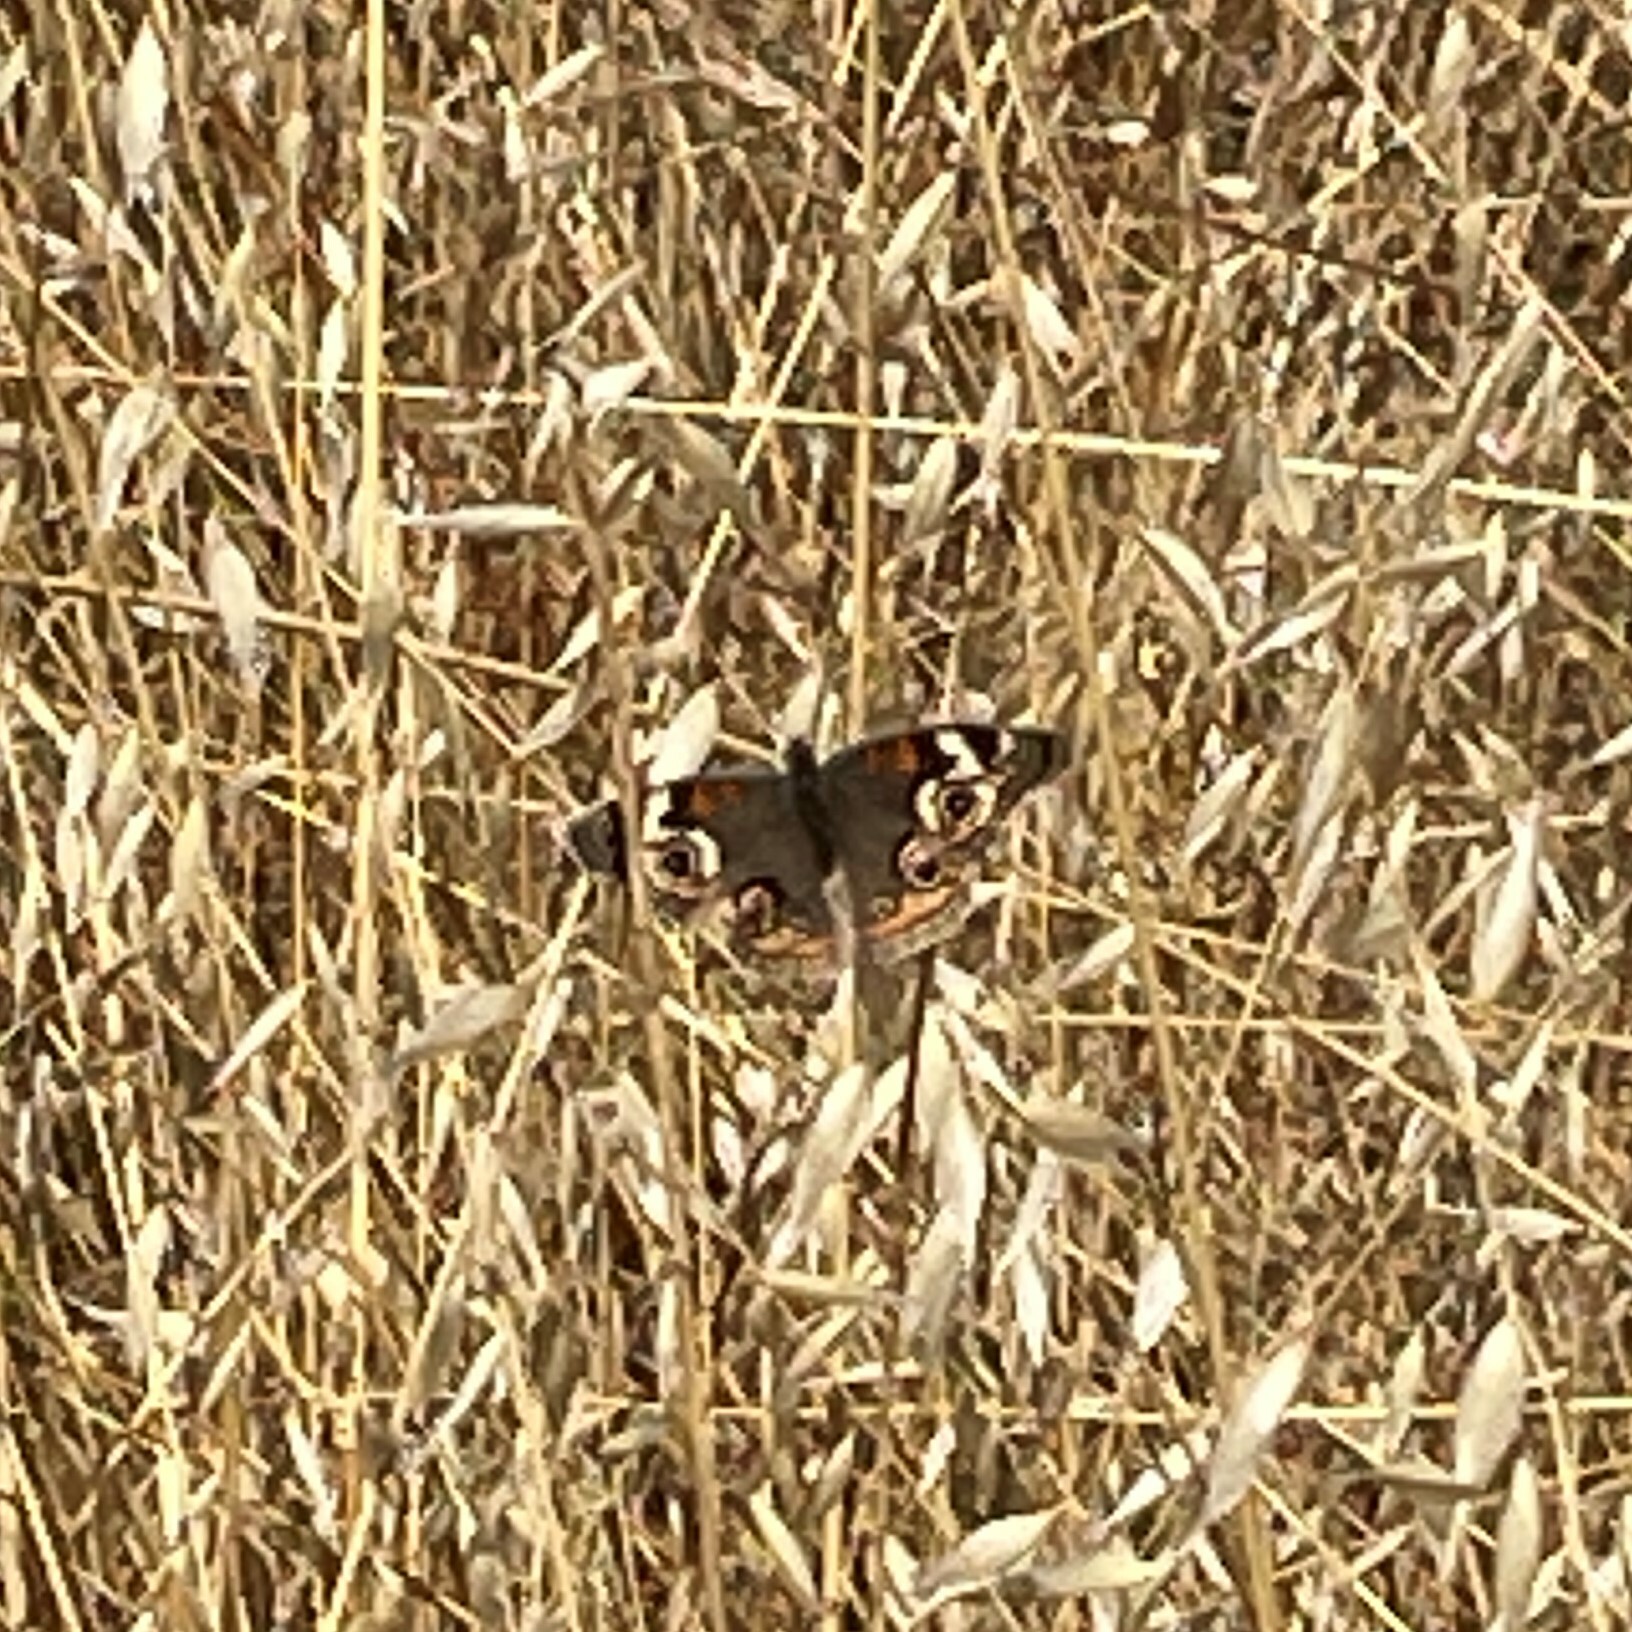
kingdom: Animalia
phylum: Arthropoda
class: Insecta
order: Lepidoptera
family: Nymphalidae
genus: Junonia
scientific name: Junonia grisea
